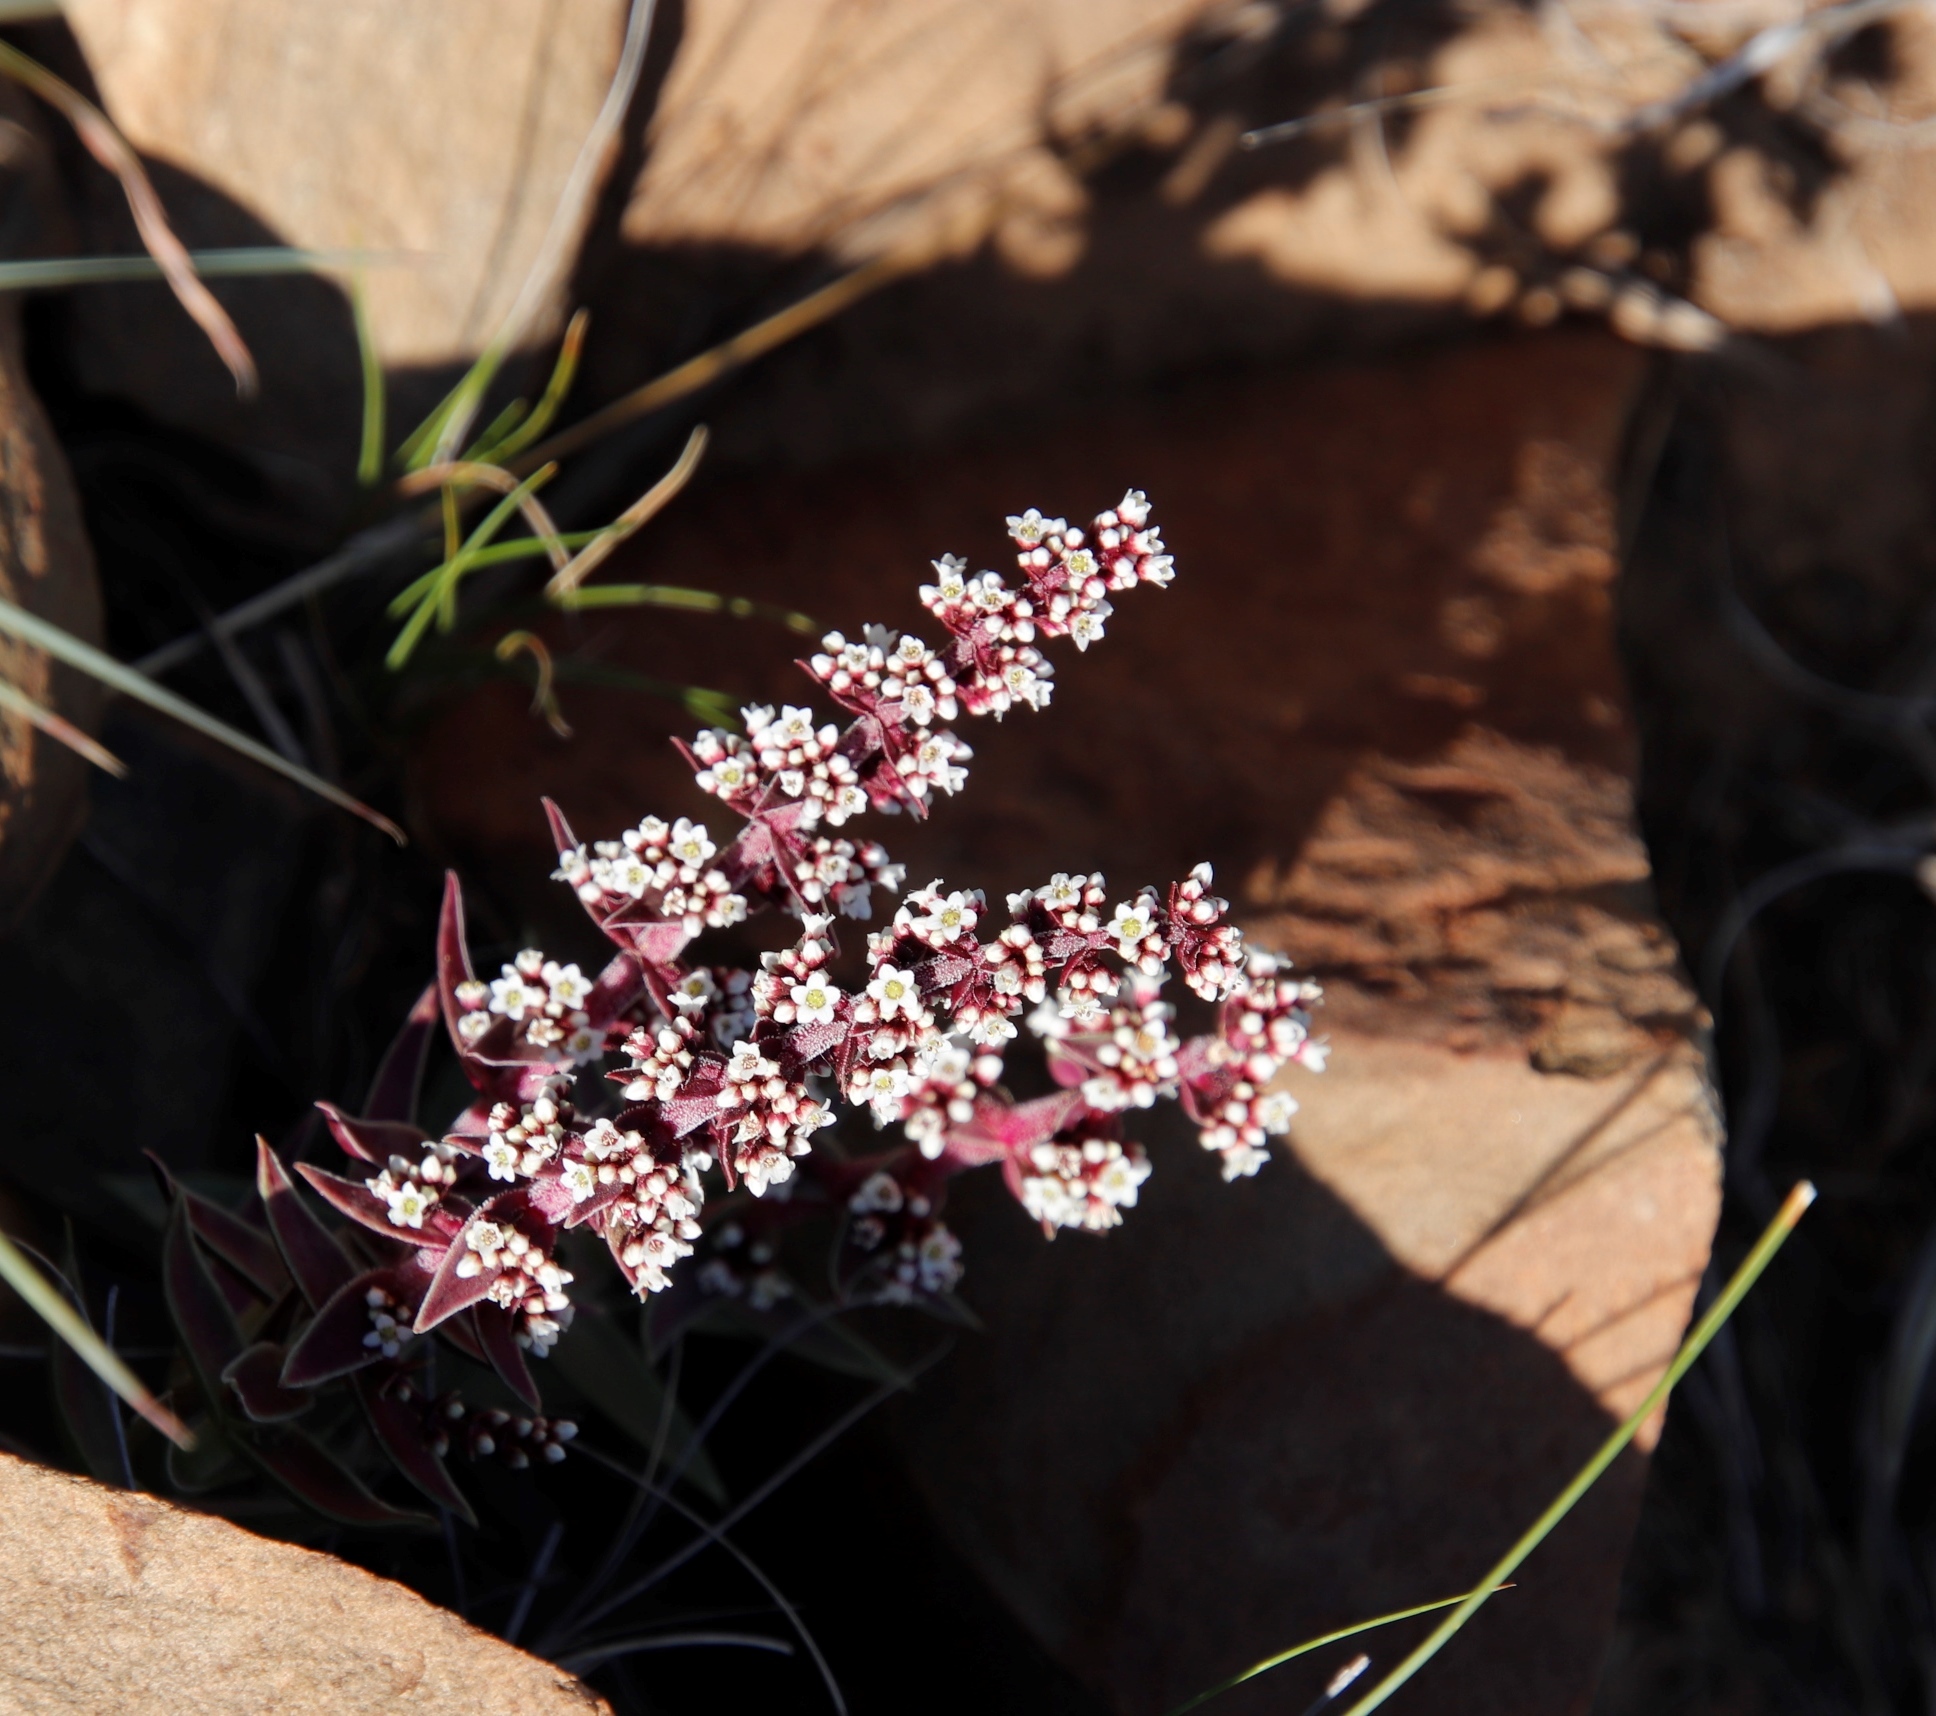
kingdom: Plantae
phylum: Tracheophyta
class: Magnoliopsida
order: Saxifragales
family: Crassulaceae
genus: Crassula
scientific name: Crassula capitella
